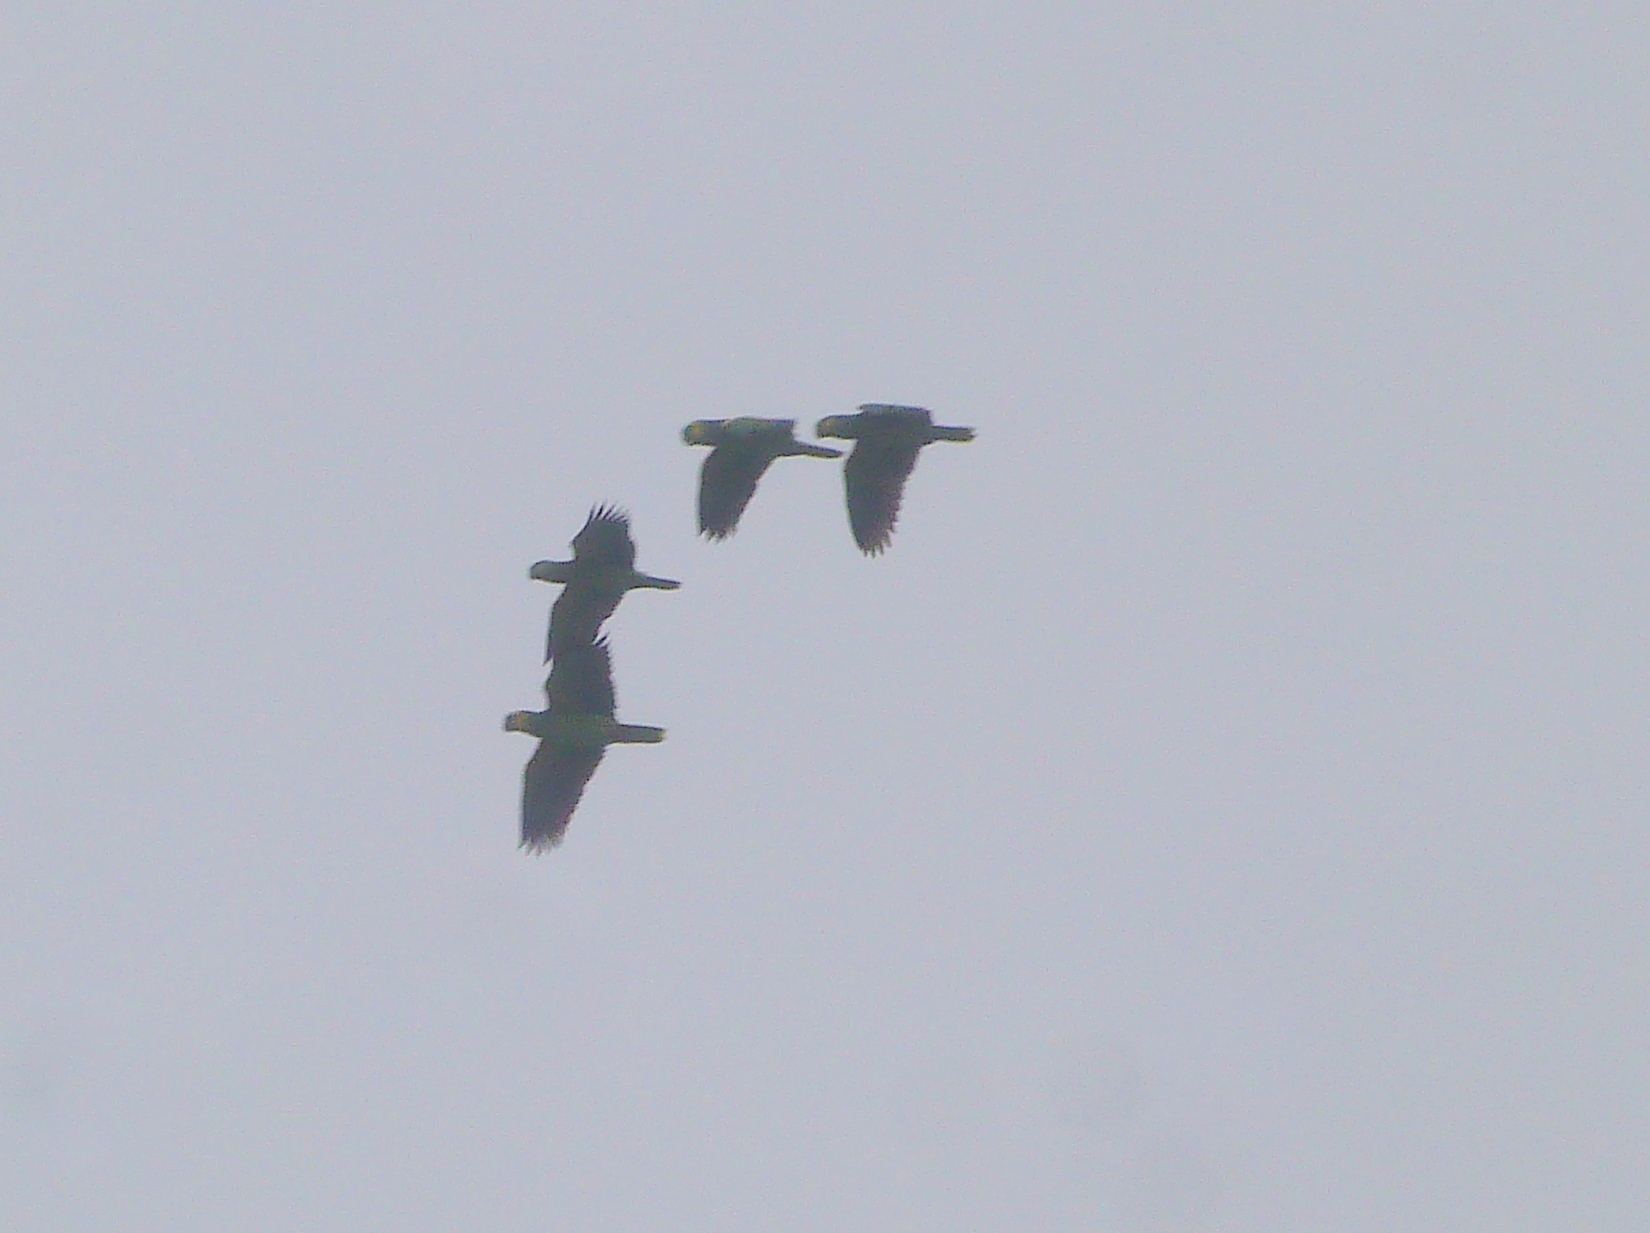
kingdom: Animalia
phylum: Chordata
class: Aves
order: Psittaciformes
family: Psittacidae
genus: Amazona
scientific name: Amazona aestiva
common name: Turquoise-fronted amazon
